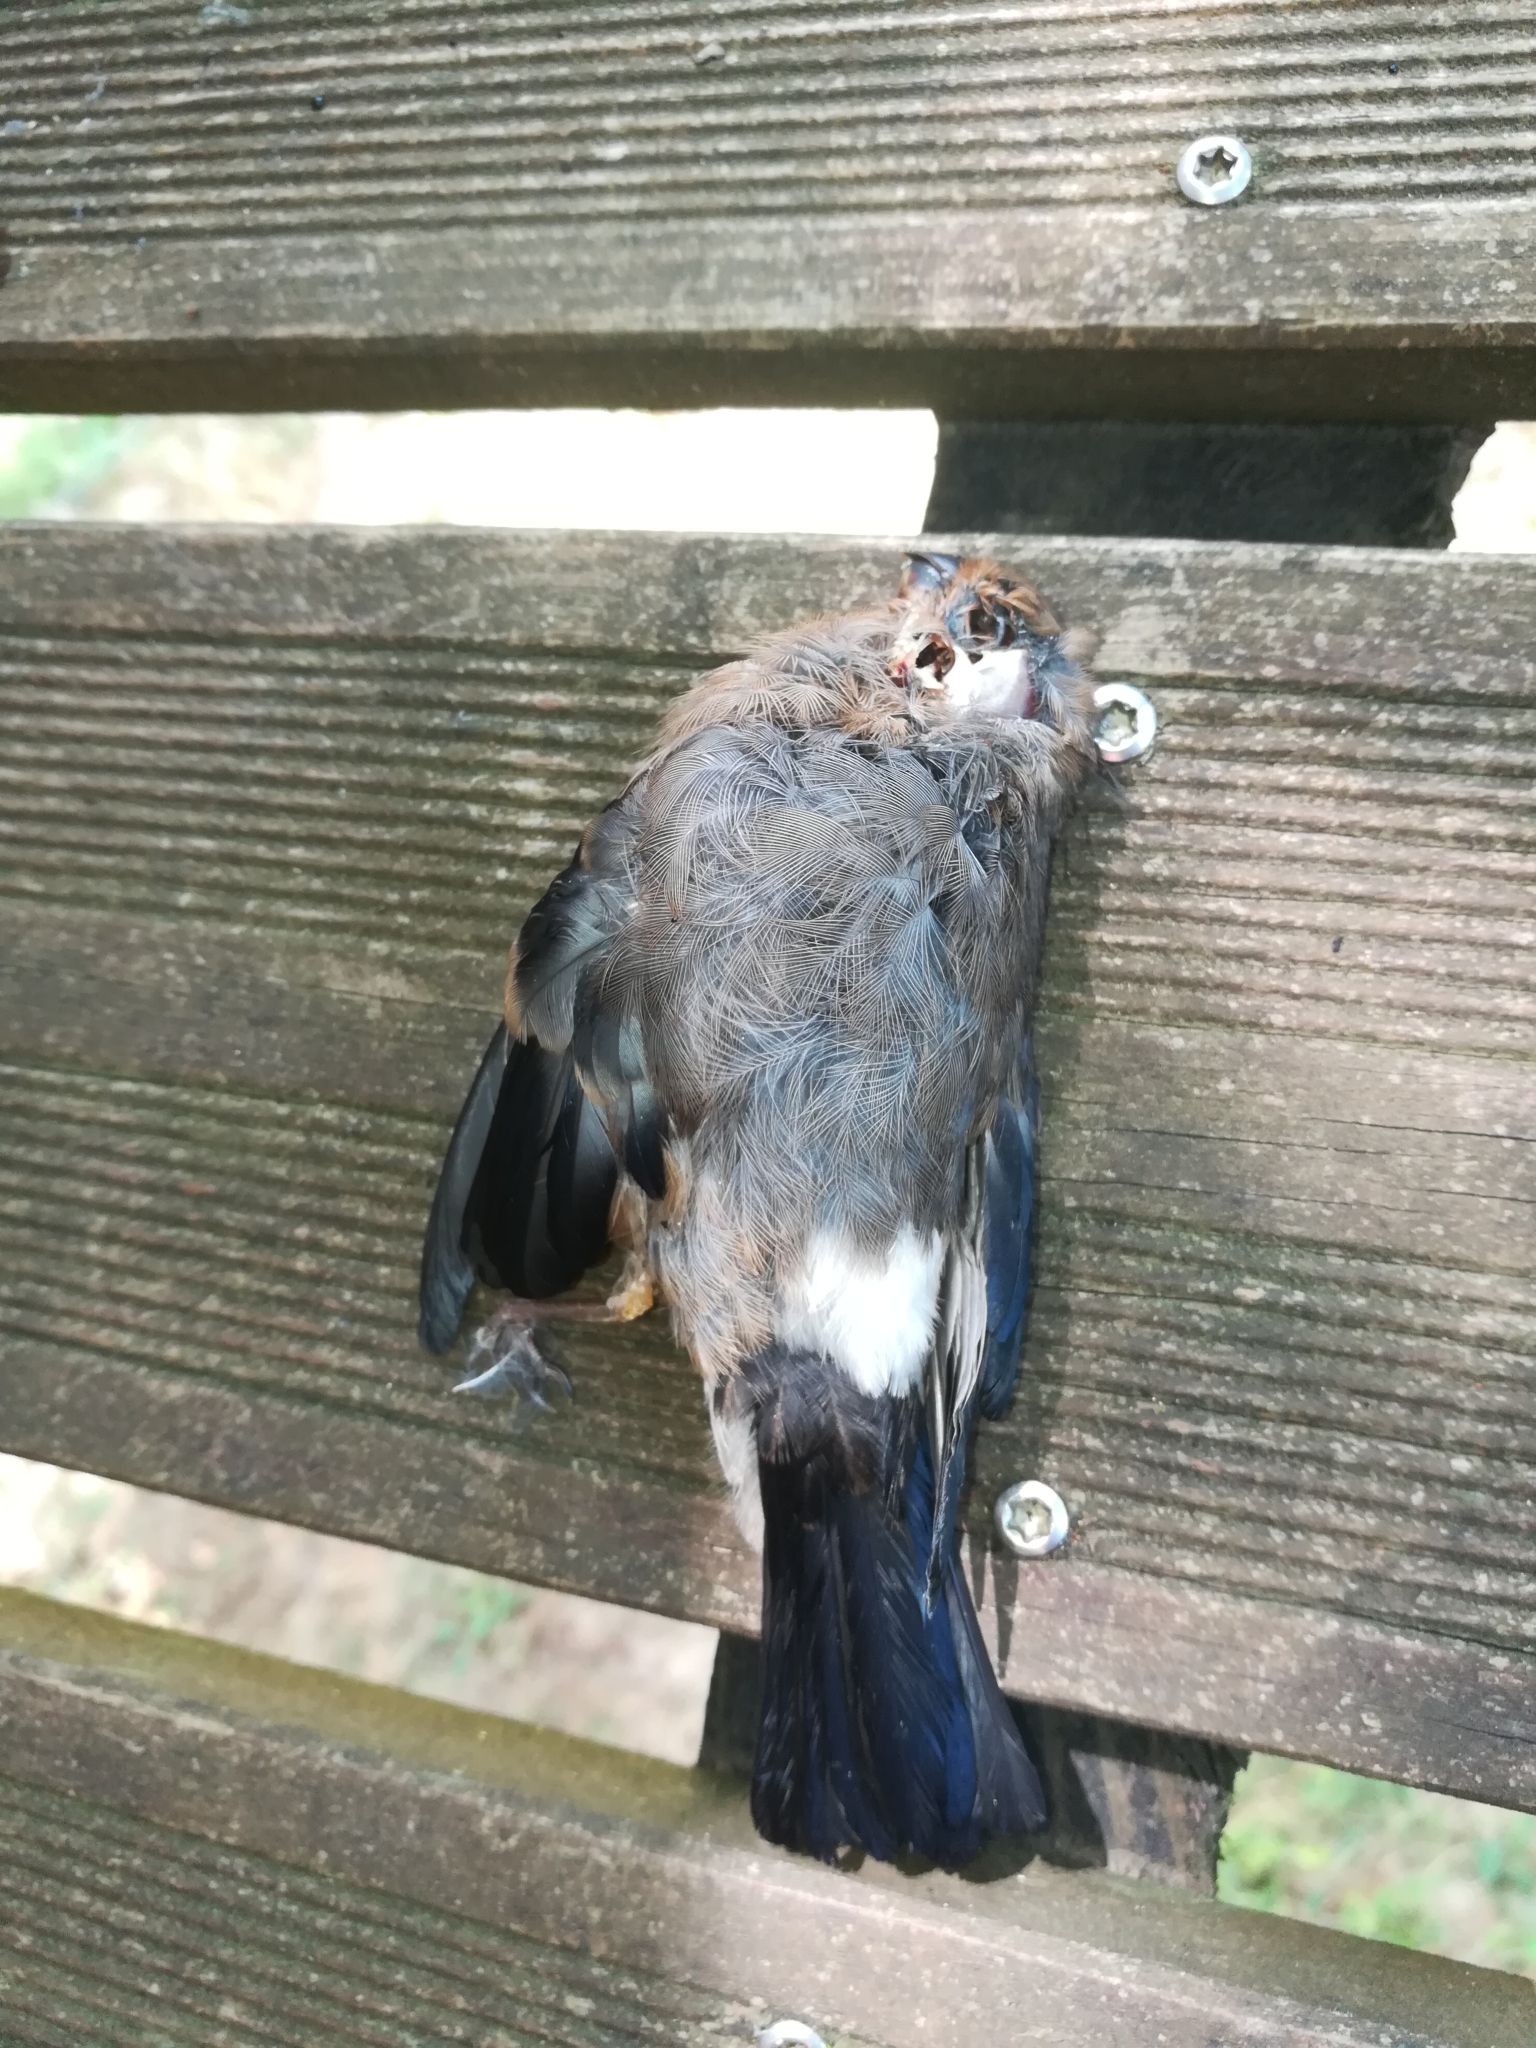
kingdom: Animalia
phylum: Chordata
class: Aves
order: Passeriformes
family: Fringillidae
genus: Pyrrhula
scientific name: Pyrrhula pyrrhula
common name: Eurasian bullfinch
